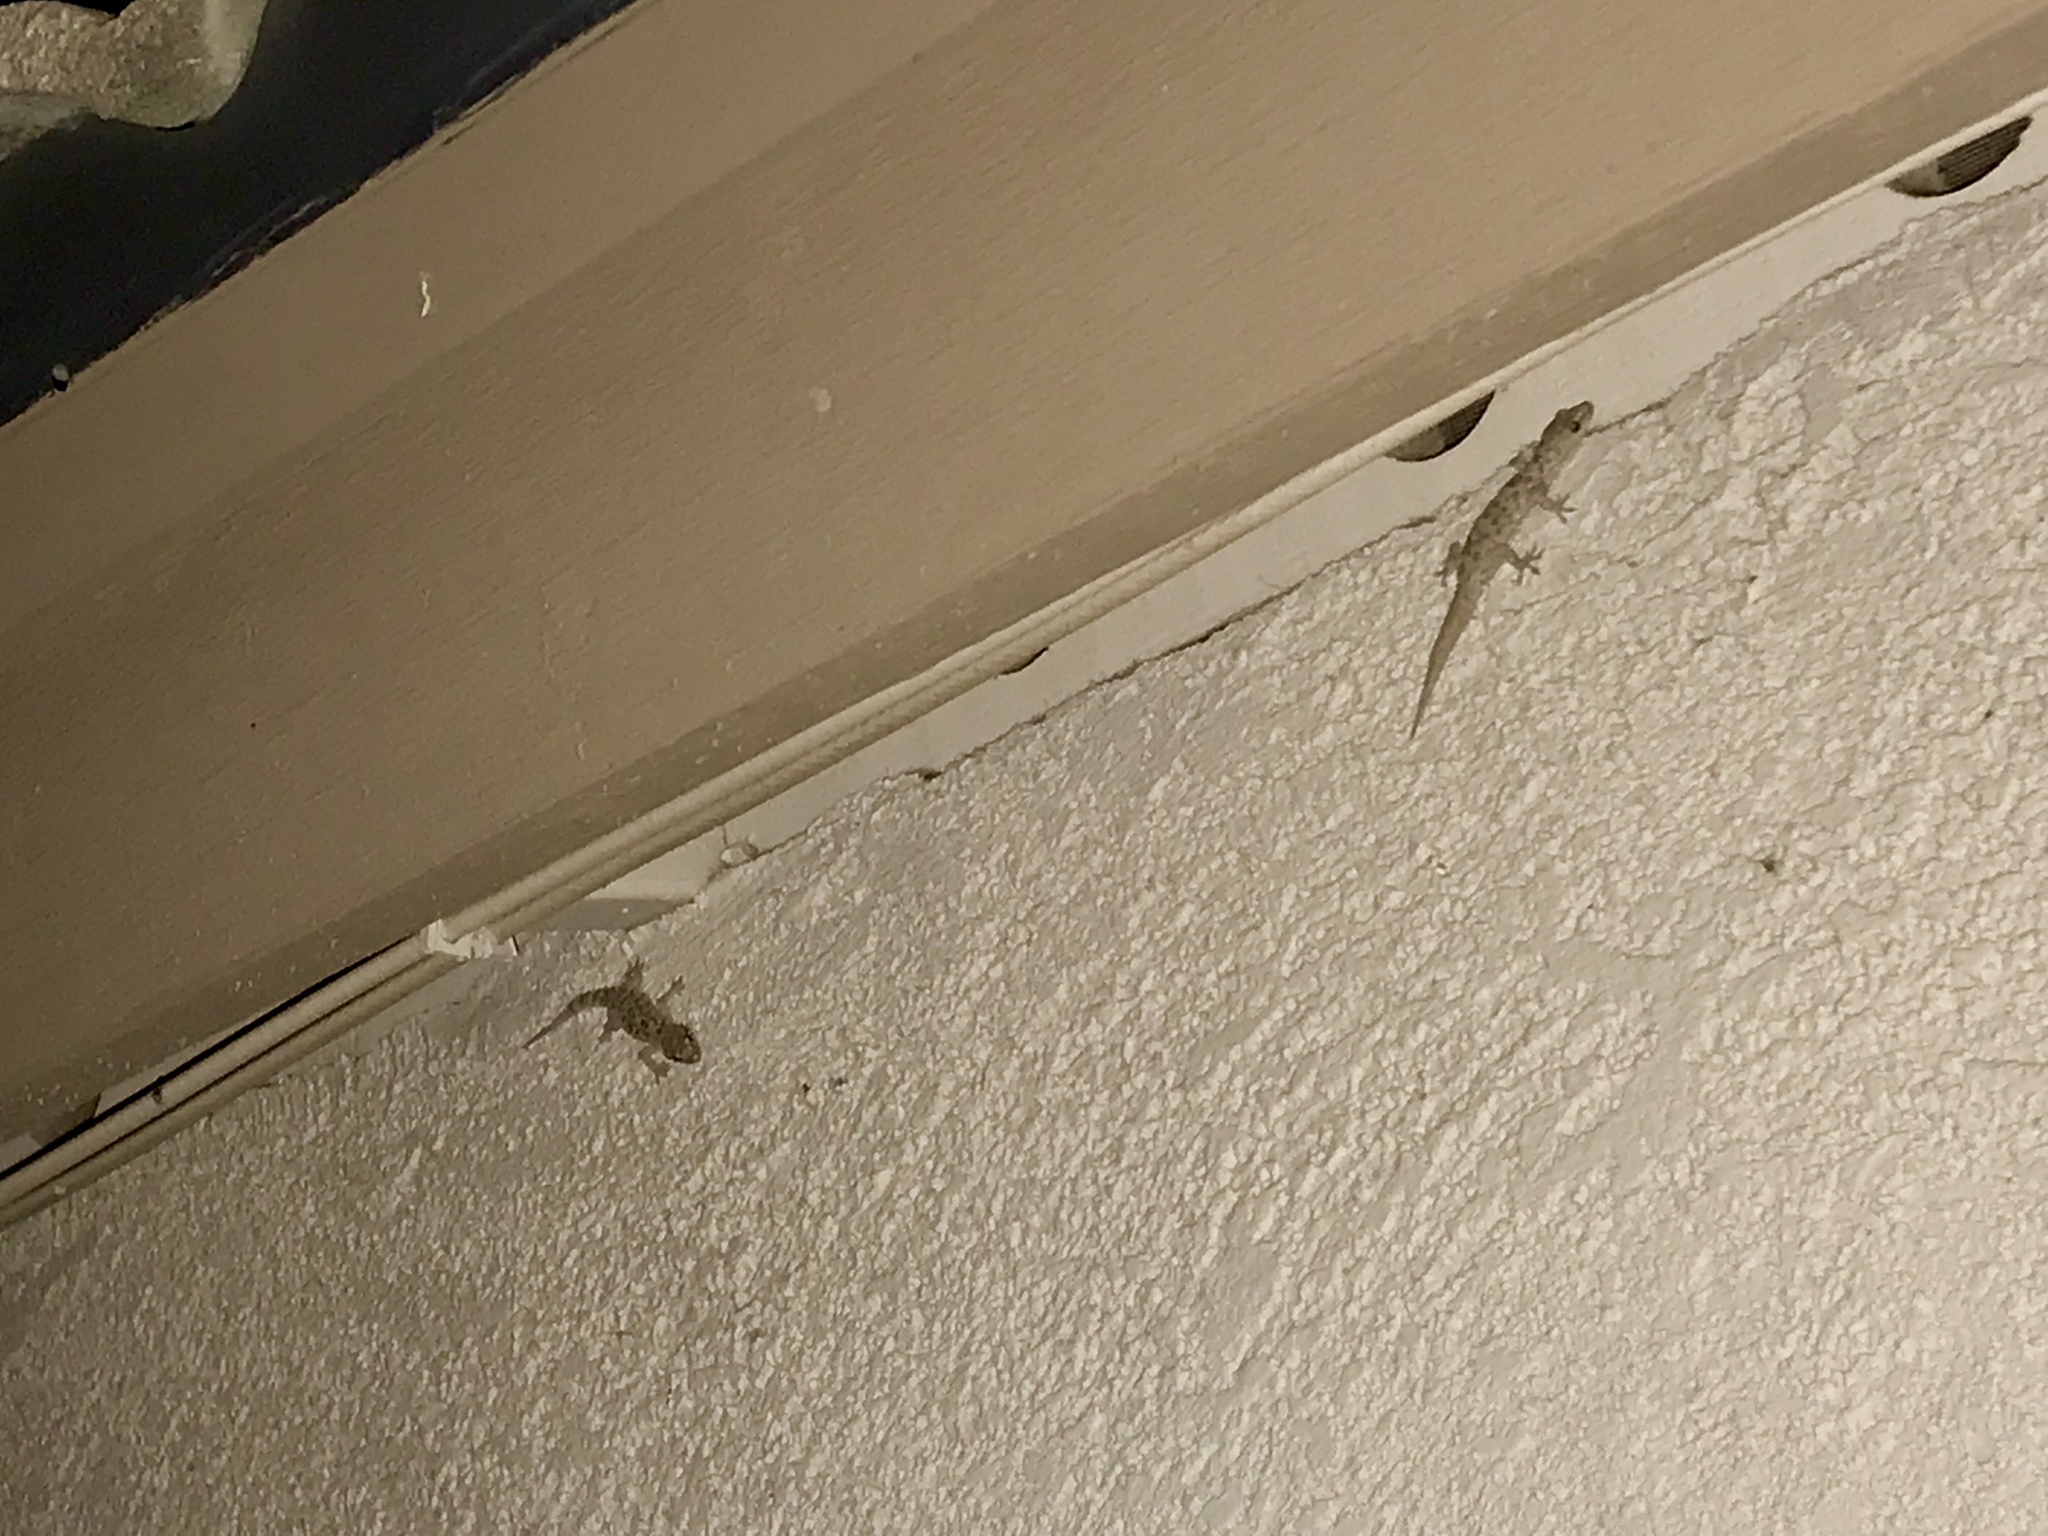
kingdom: Animalia
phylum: Chordata
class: Squamata
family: Gekkonidae
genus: Hemidactylus
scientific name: Hemidactylus turcicus
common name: Turkish gecko
